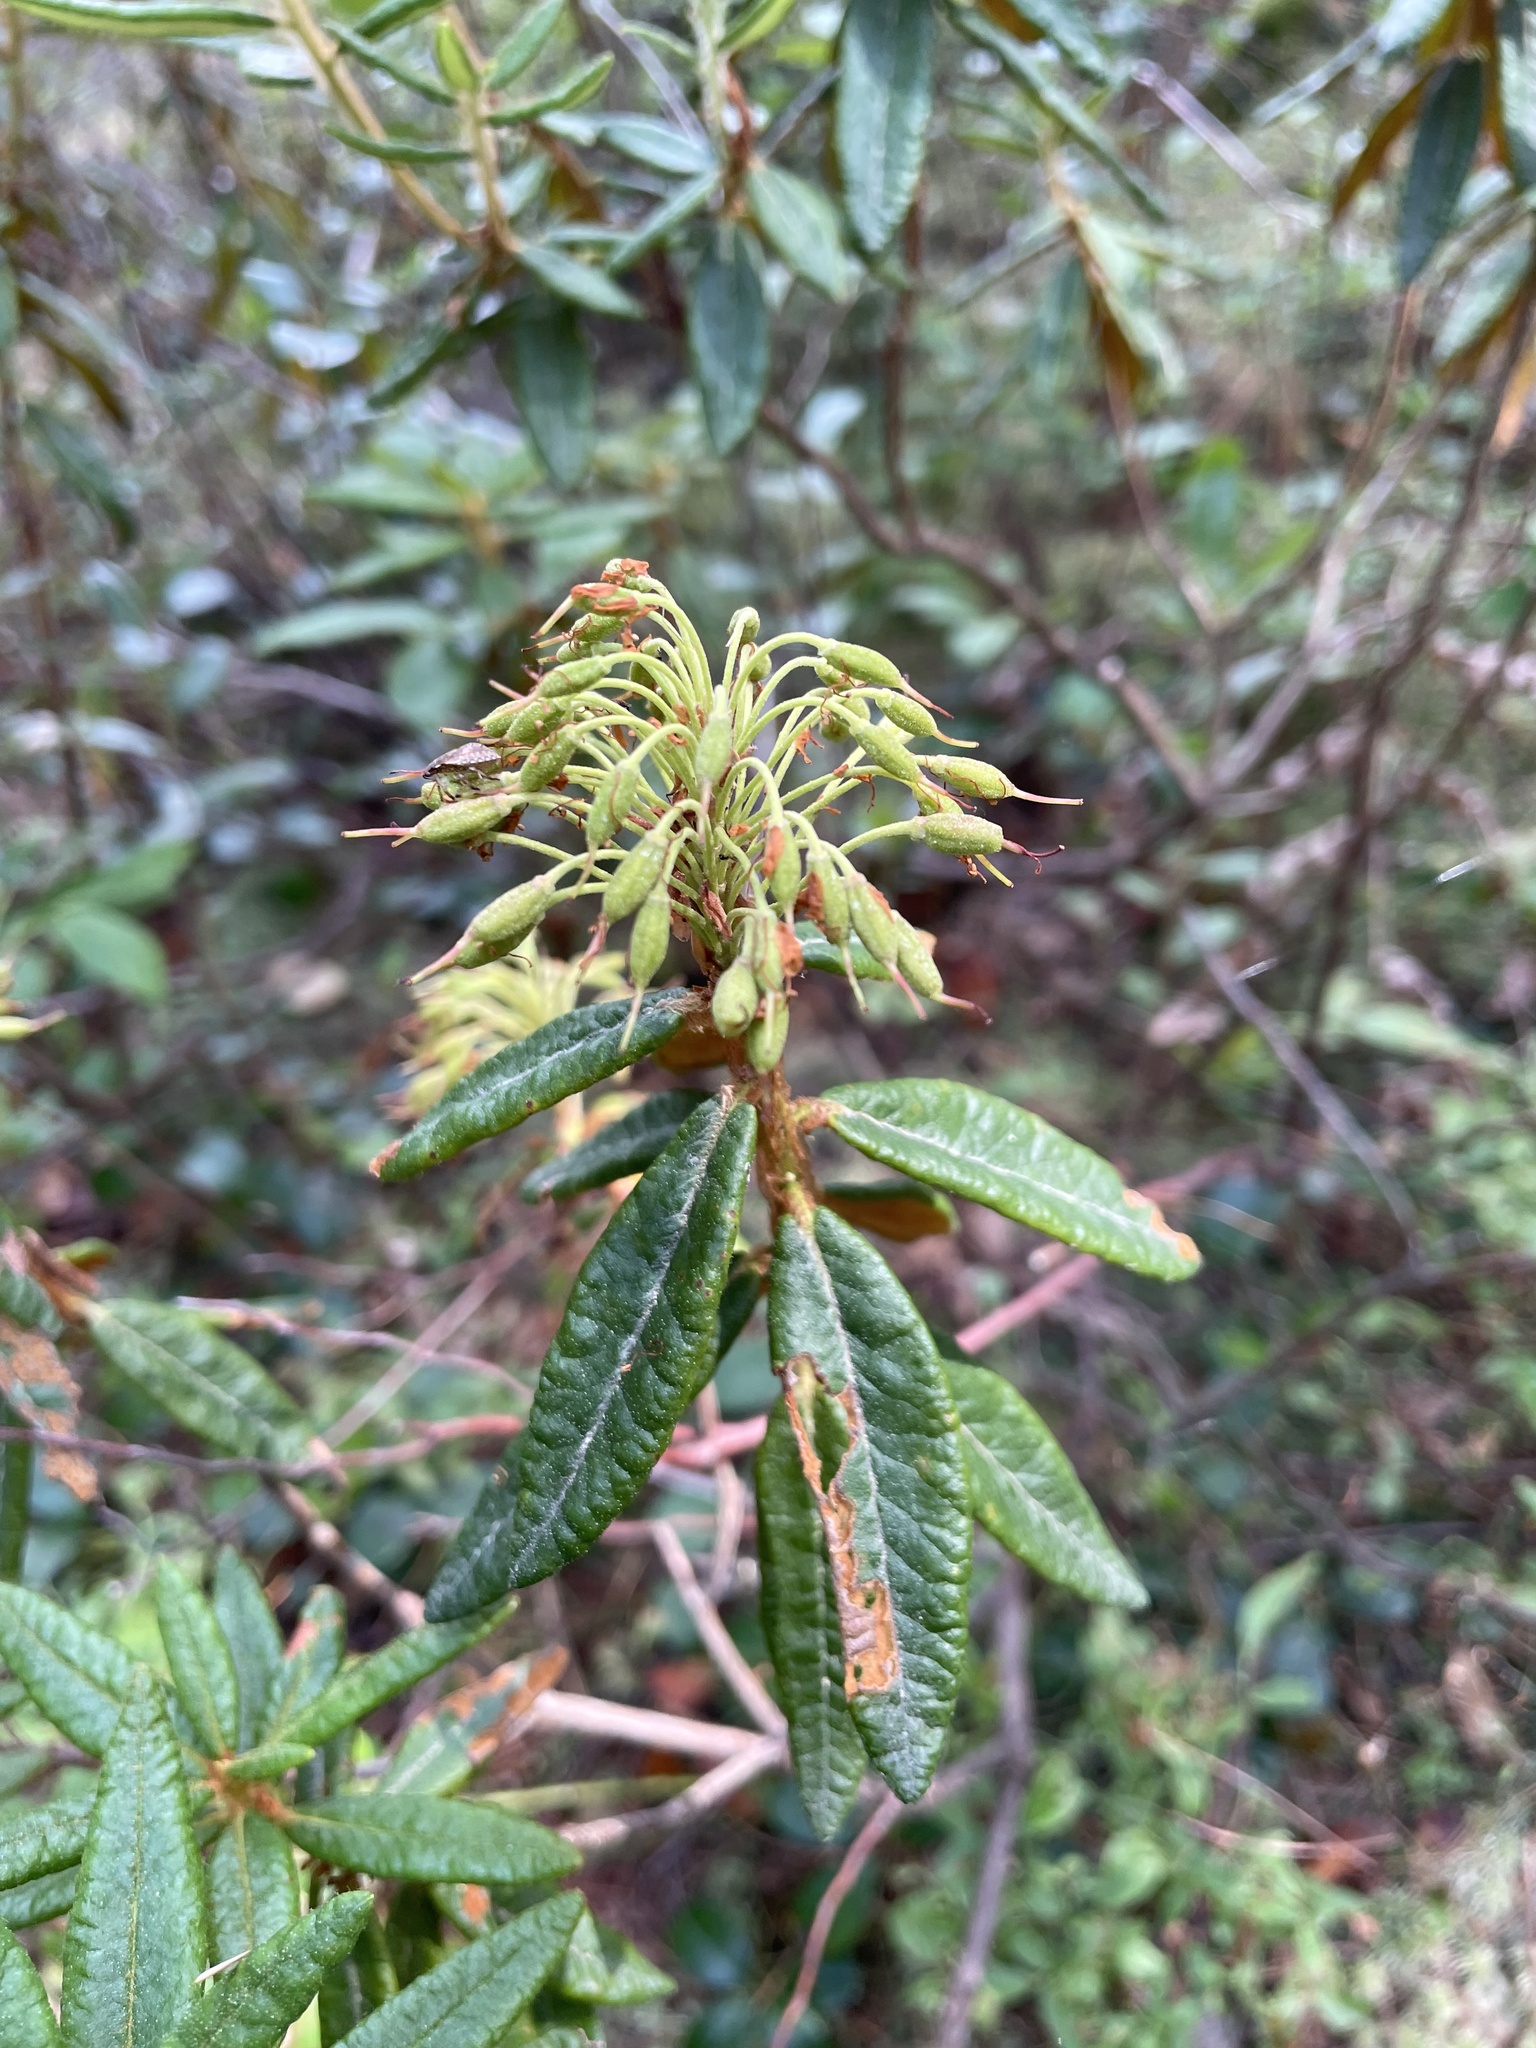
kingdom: Plantae
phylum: Tracheophyta
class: Magnoliopsida
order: Ericales
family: Ericaceae
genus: Rhododendron
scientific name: Rhododendron groenlandicum
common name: Bog labrador tea
